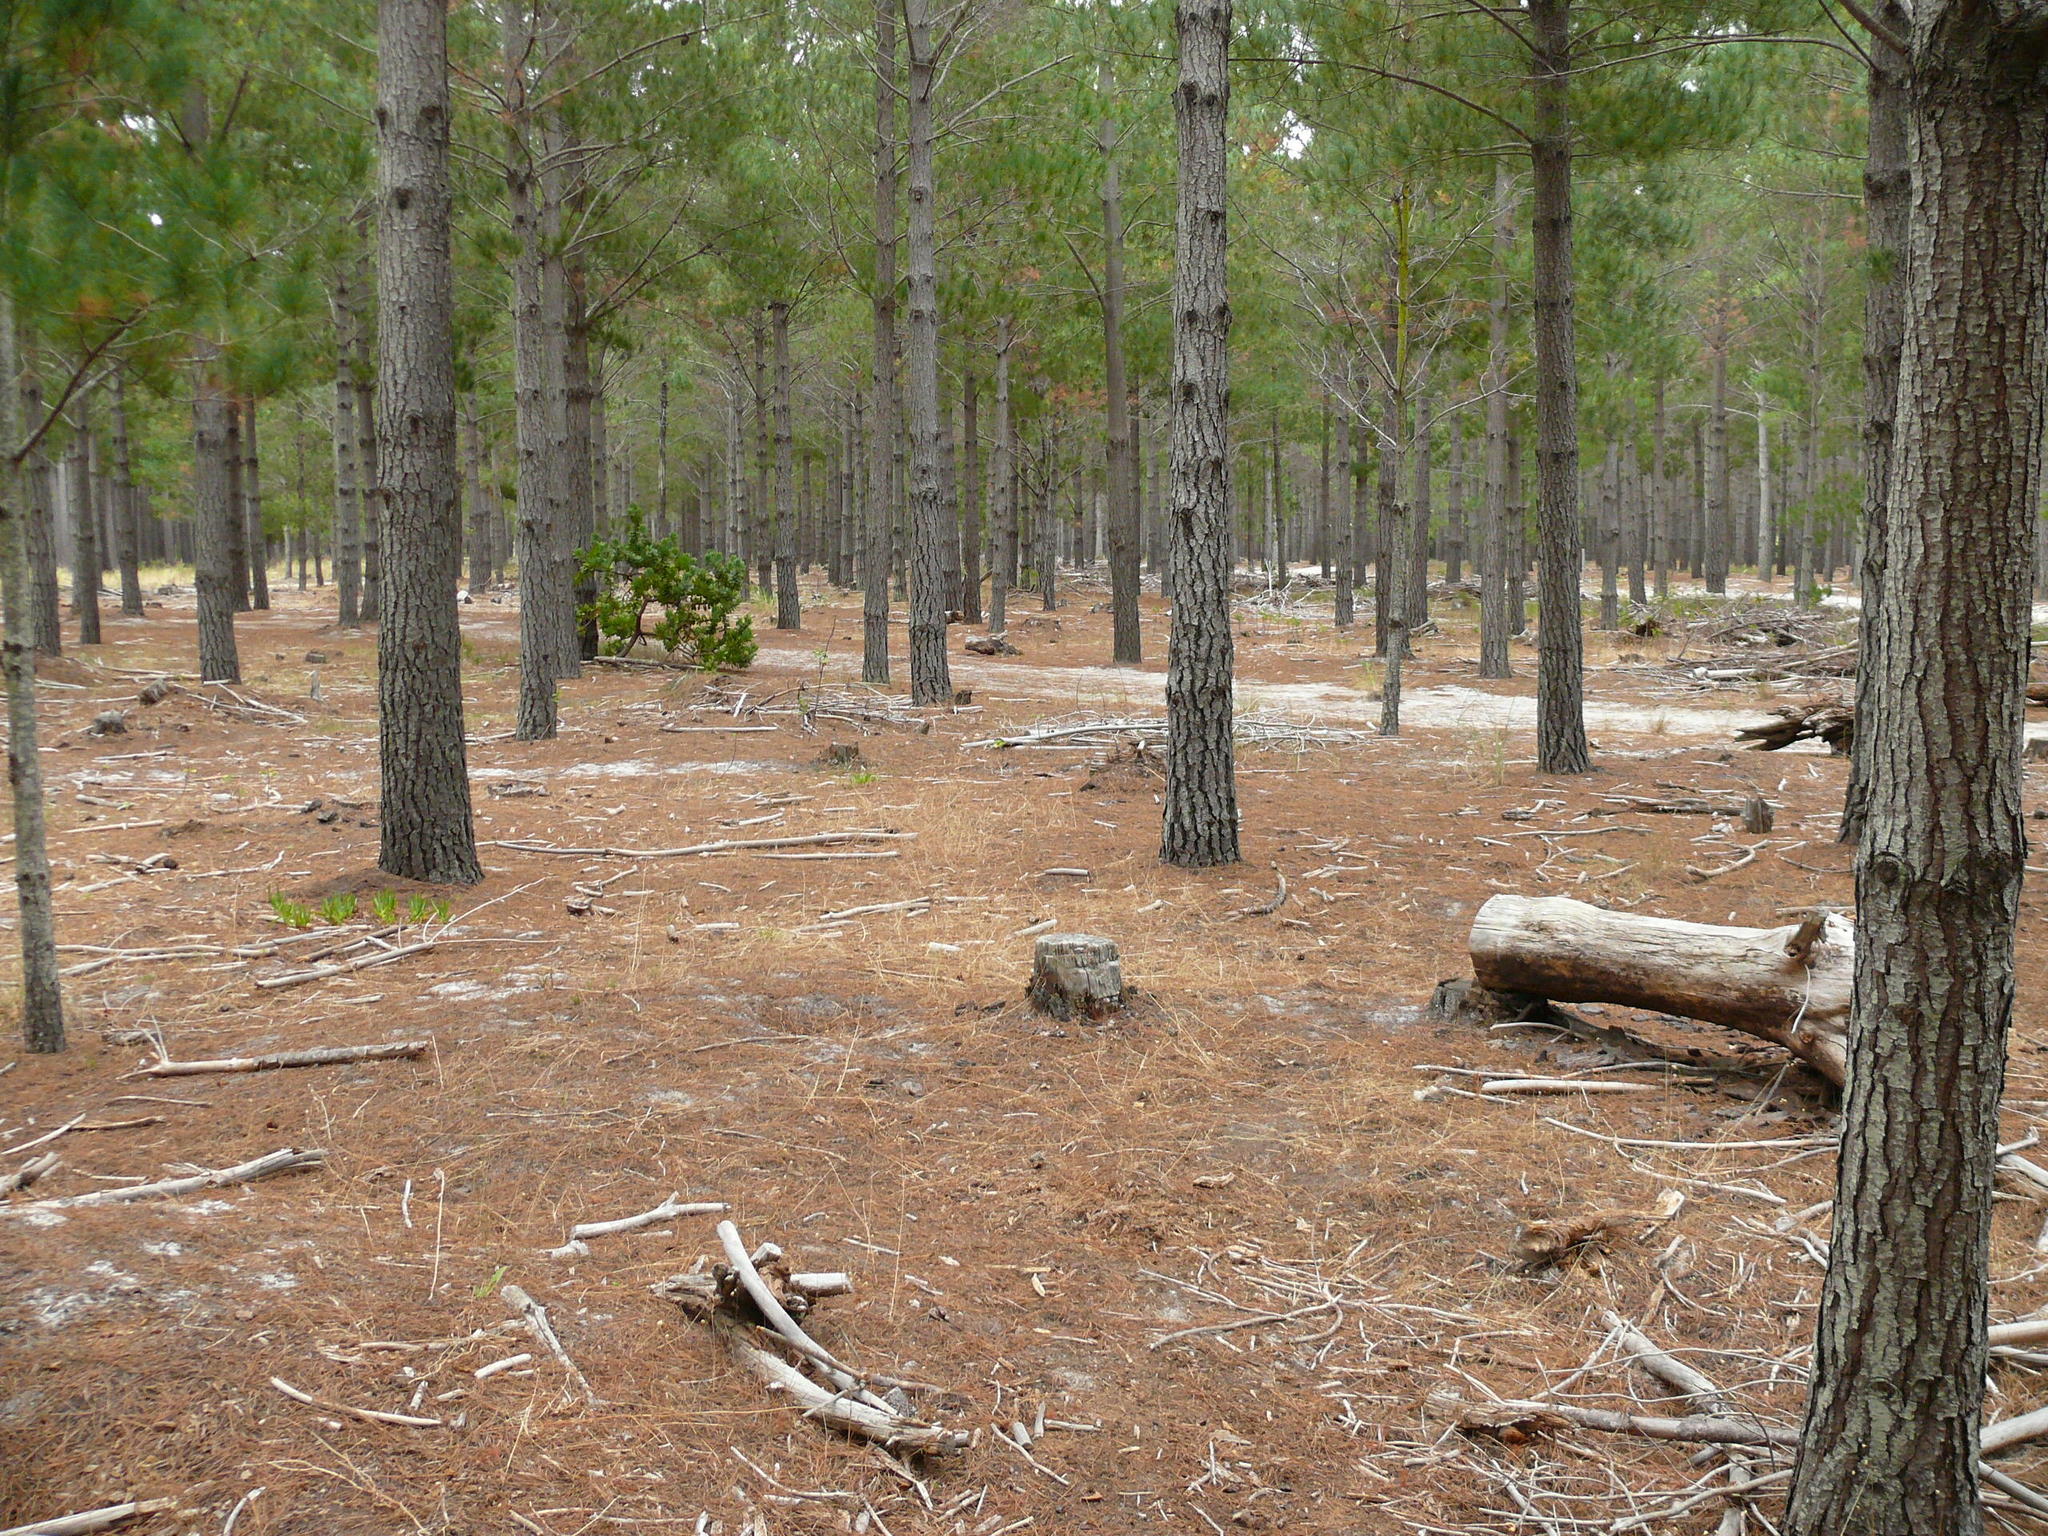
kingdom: Plantae
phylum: Tracheophyta
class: Magnoliopsida
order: Proteales
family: Proteaceae
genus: Leucospermum
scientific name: Leucospermum conocarpodendron
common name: Tree pincushion
